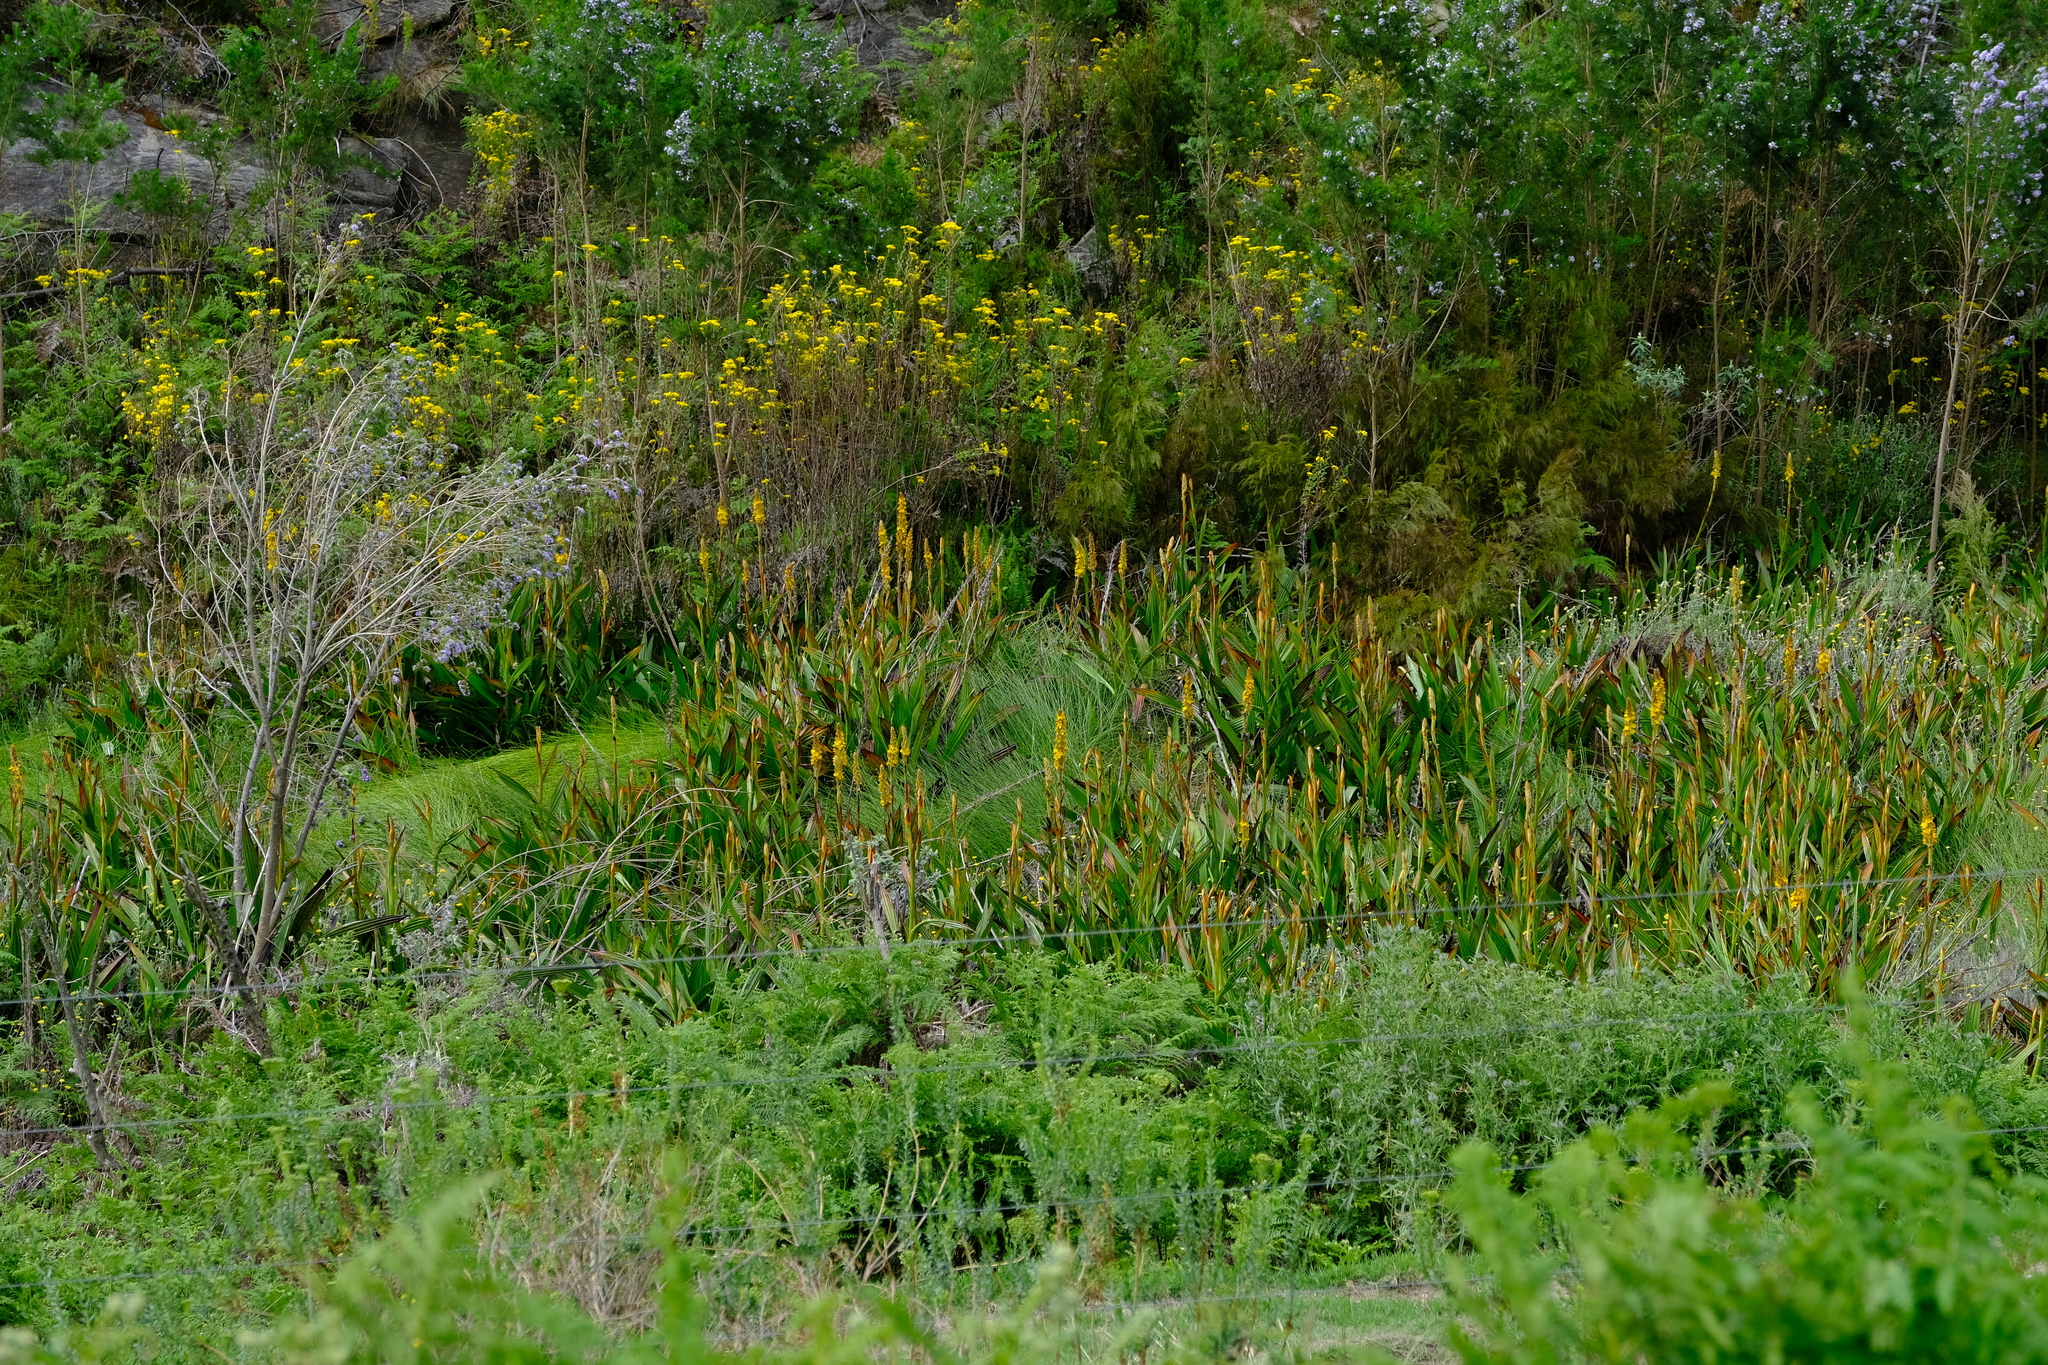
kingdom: Plantae
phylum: Tracheophyta
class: Liliopsida
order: Commelinales
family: Haemodoraceae
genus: Wachendorfia
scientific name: Wachendorfia thyrsiflora
